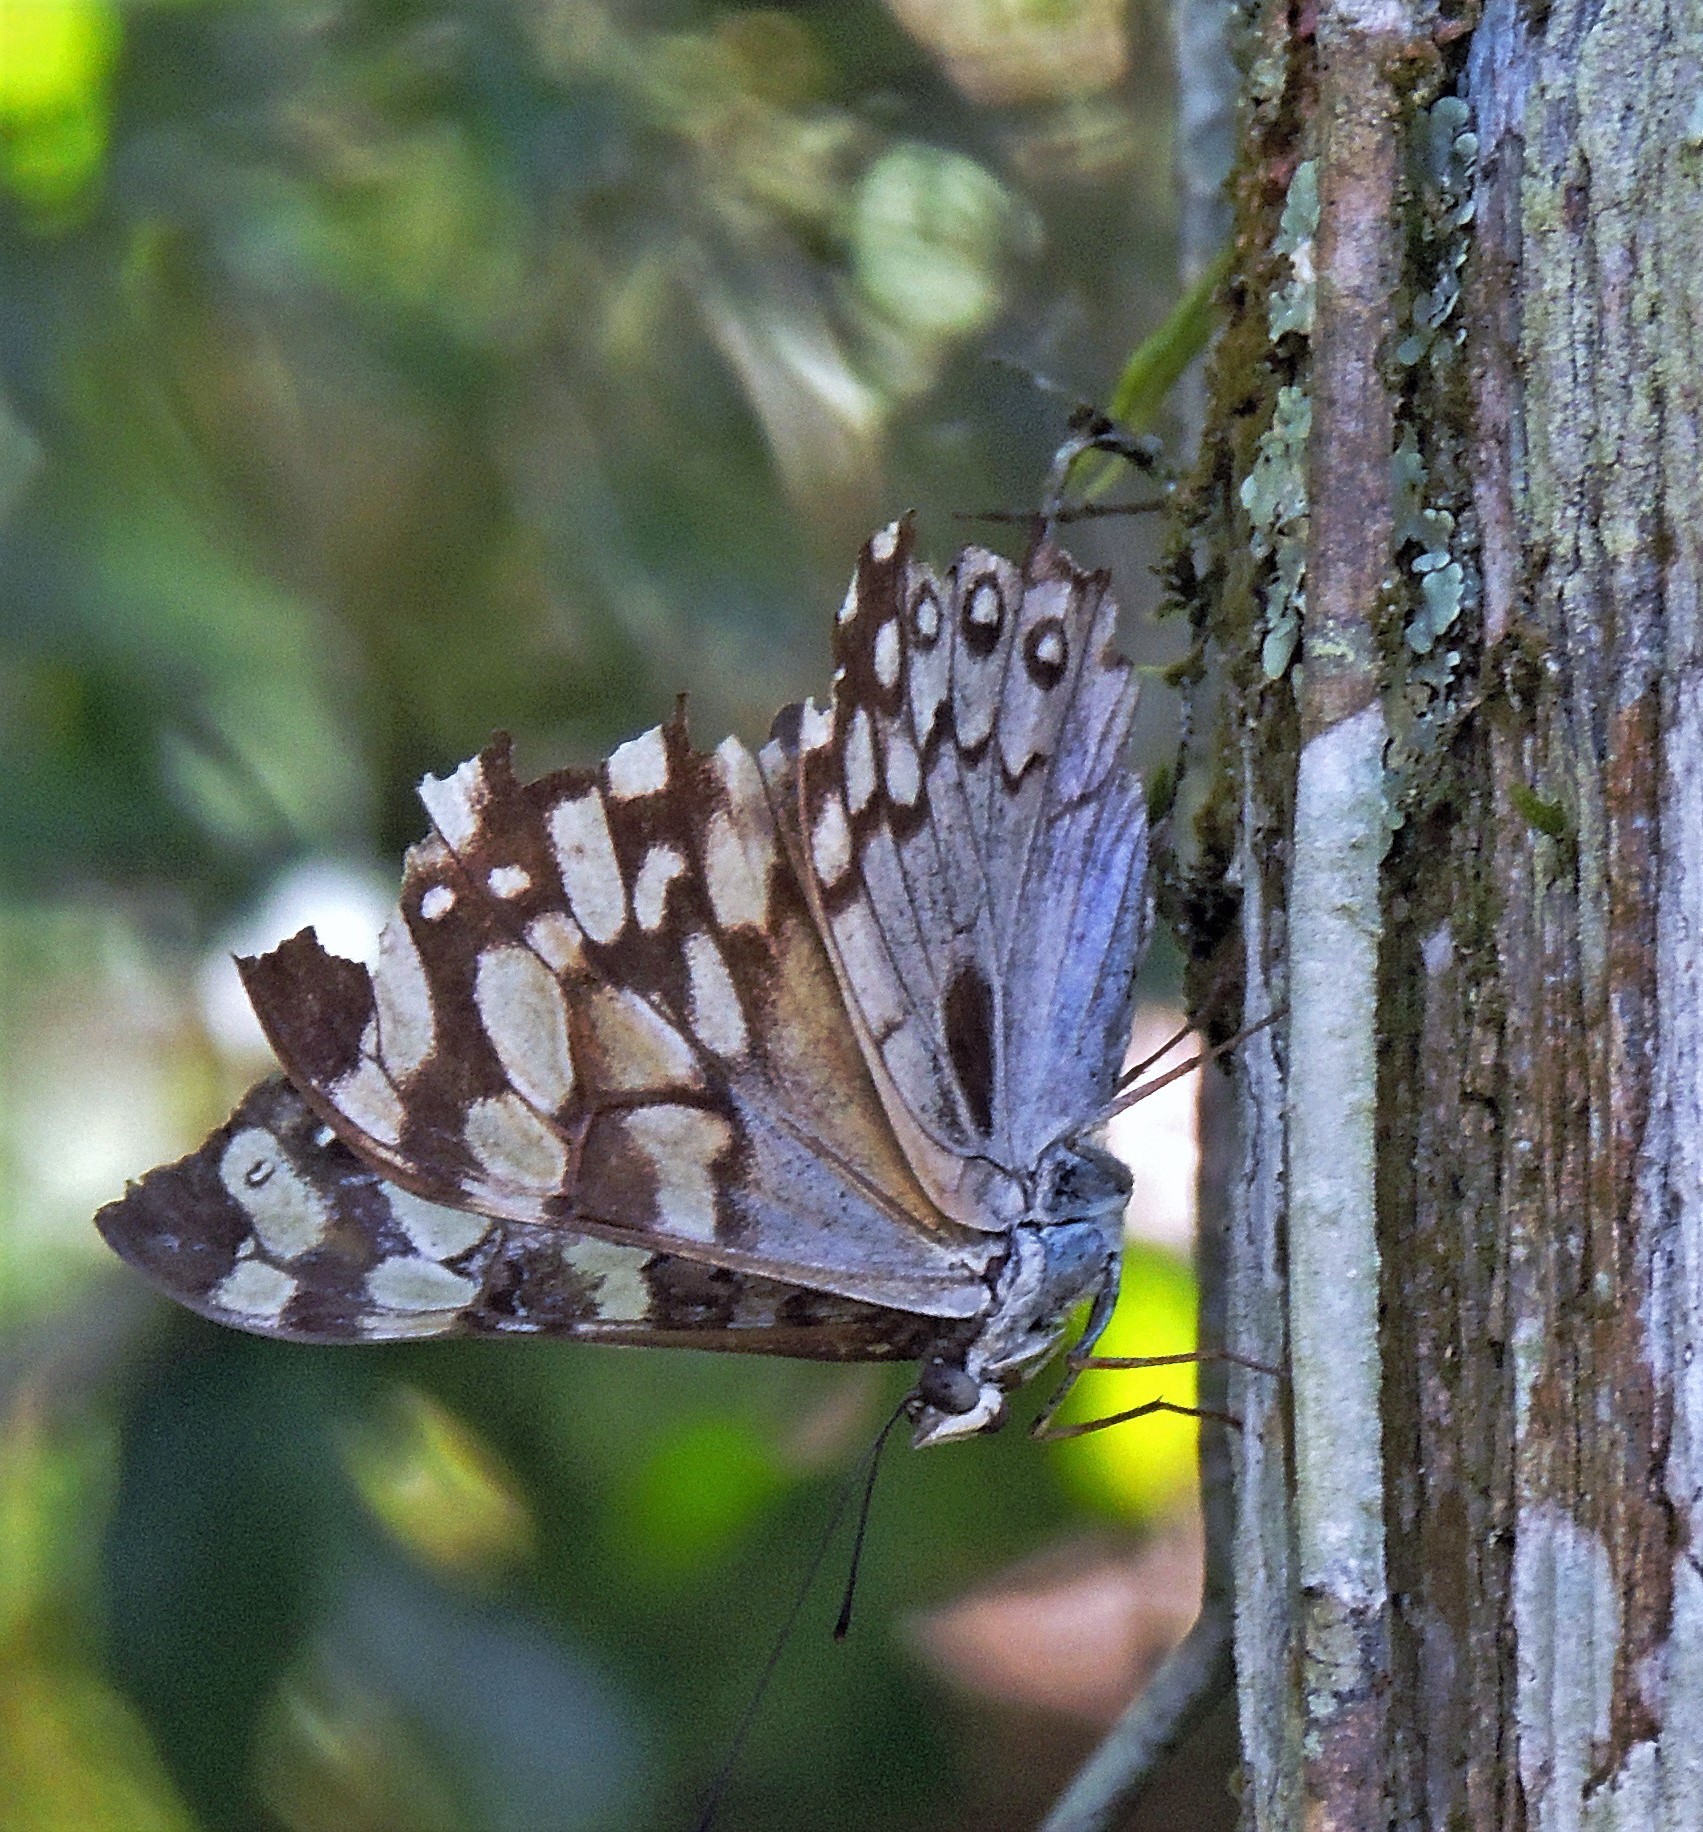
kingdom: Animalia
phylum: Arthropoda
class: Insecta
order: Lepidoptera
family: Nymphalidae
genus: Hamadryas
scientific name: Hamadryas epinome
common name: Epinome cracker
